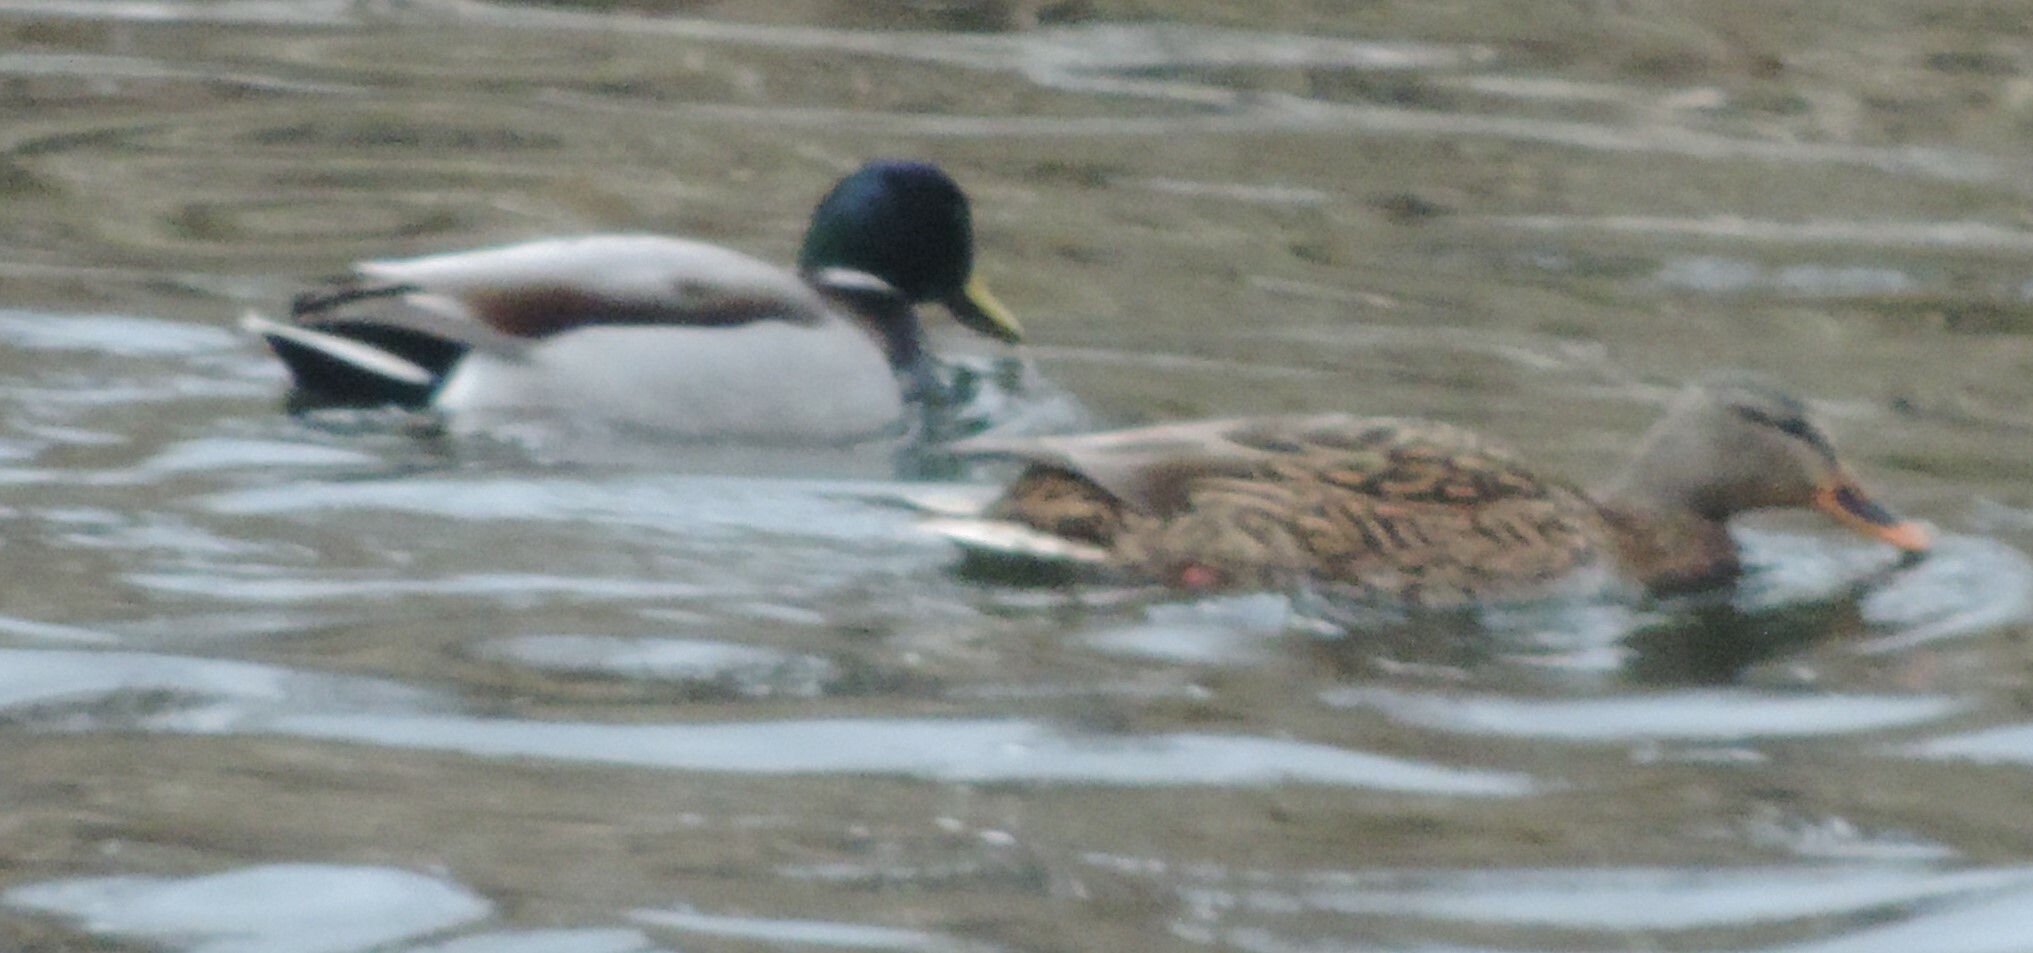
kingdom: Animalia
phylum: Chordata
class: Aves
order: Anseriformes
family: Anatidae
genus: Anas
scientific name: Anas platyrhynchos
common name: Mallard
